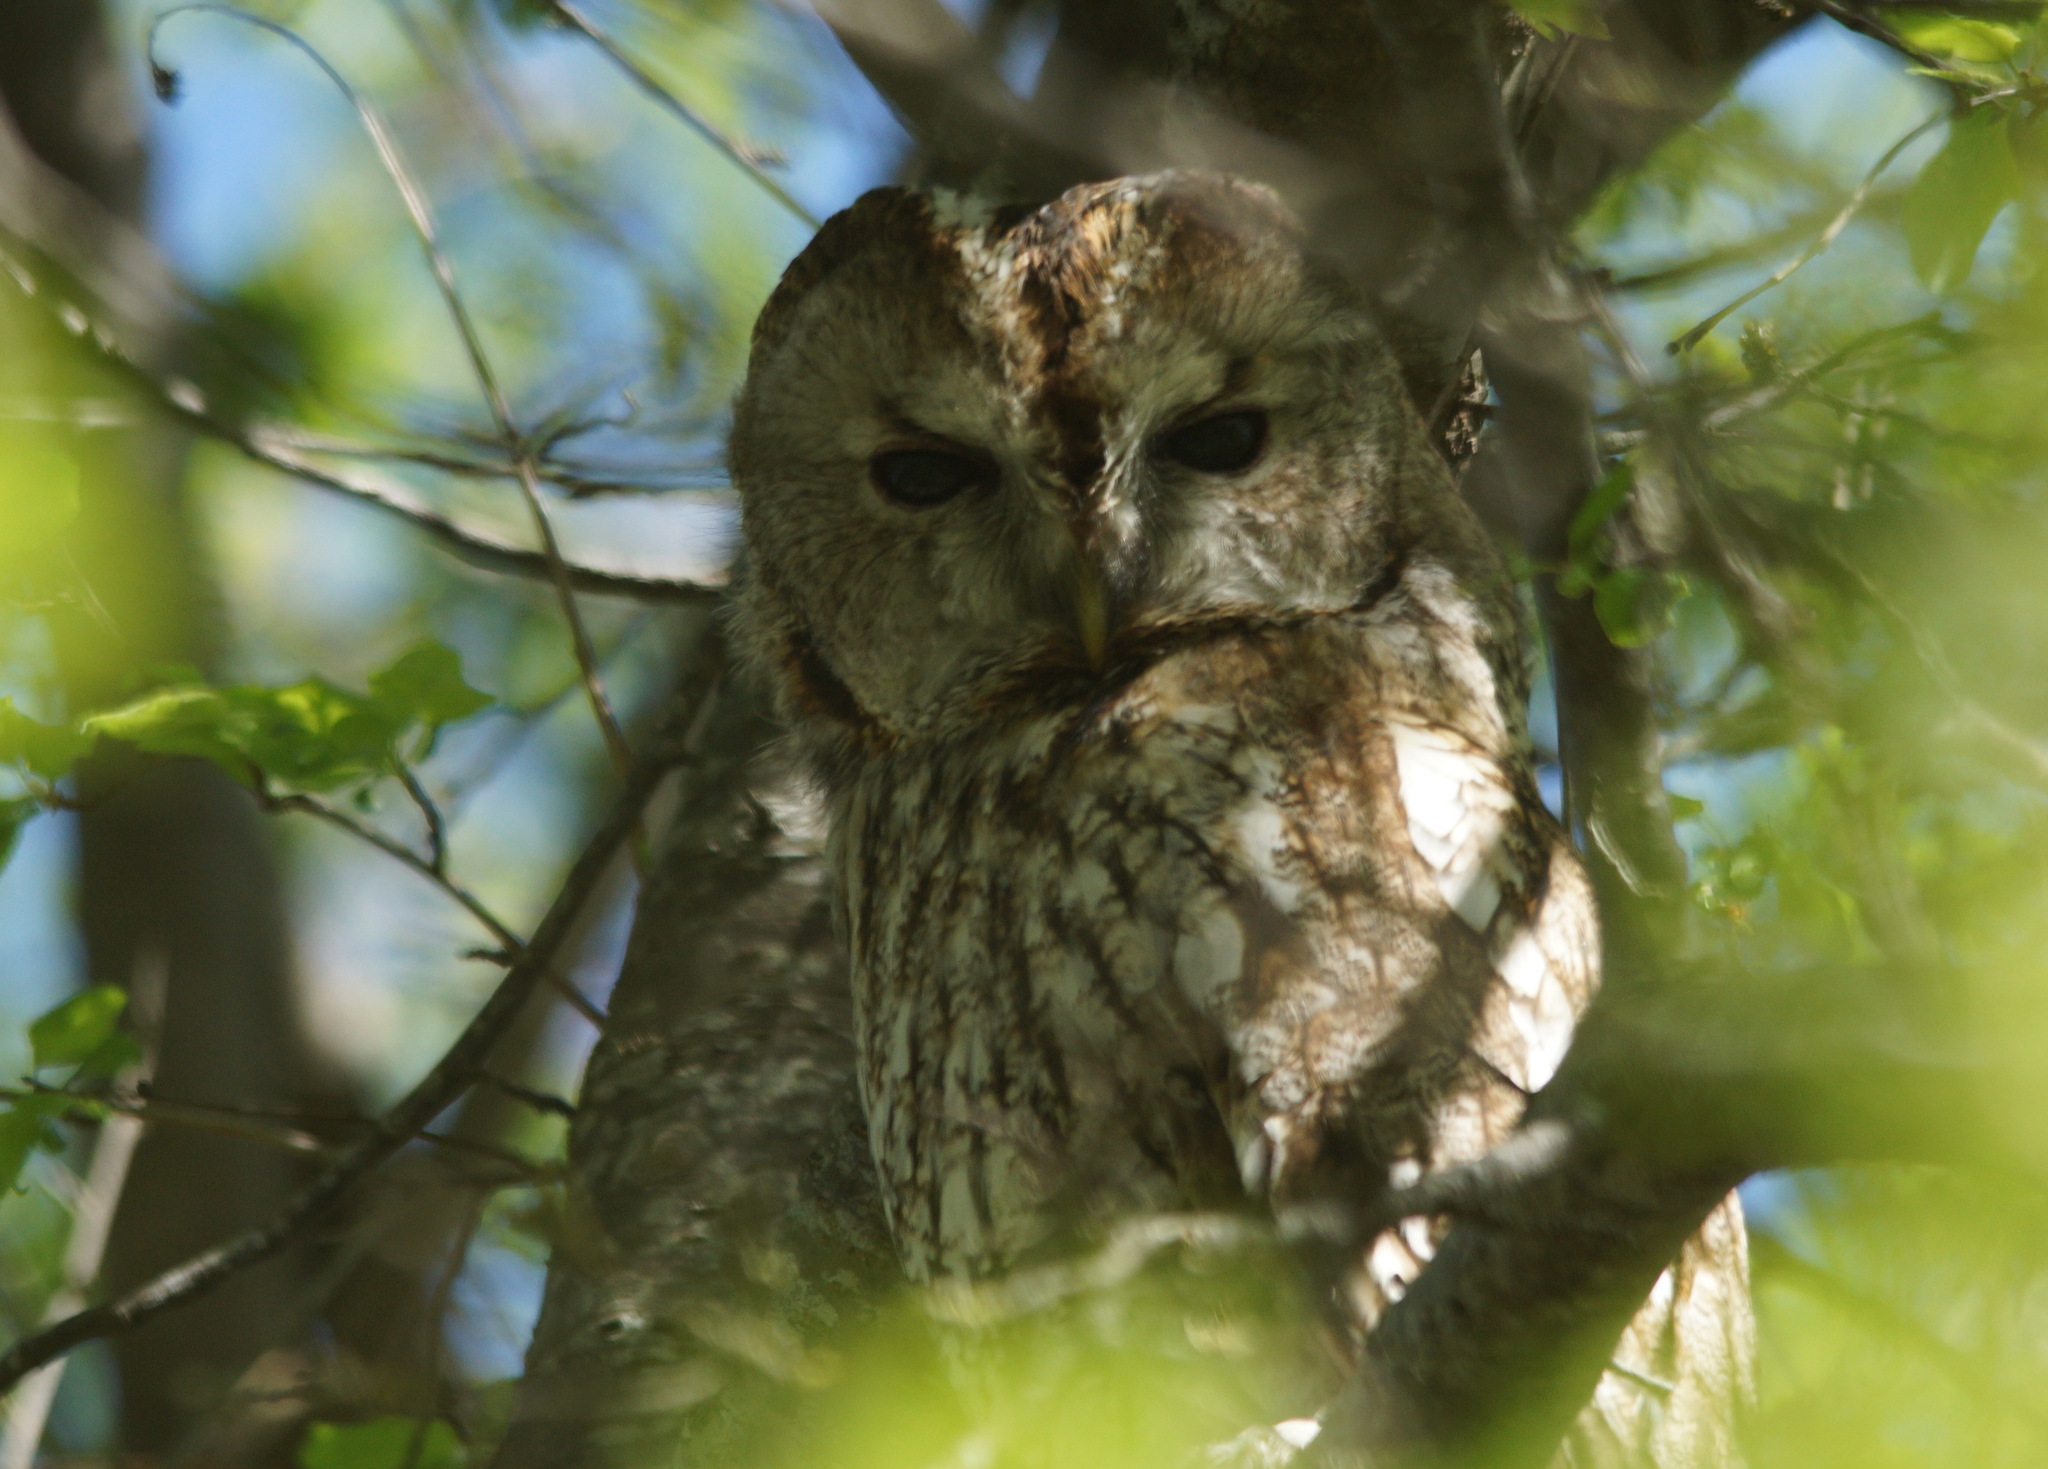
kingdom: Animalia
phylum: Chordata
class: Aves
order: Strigiformes
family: Strigidae
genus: Strix
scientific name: Strix aluco
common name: Tawny owl
